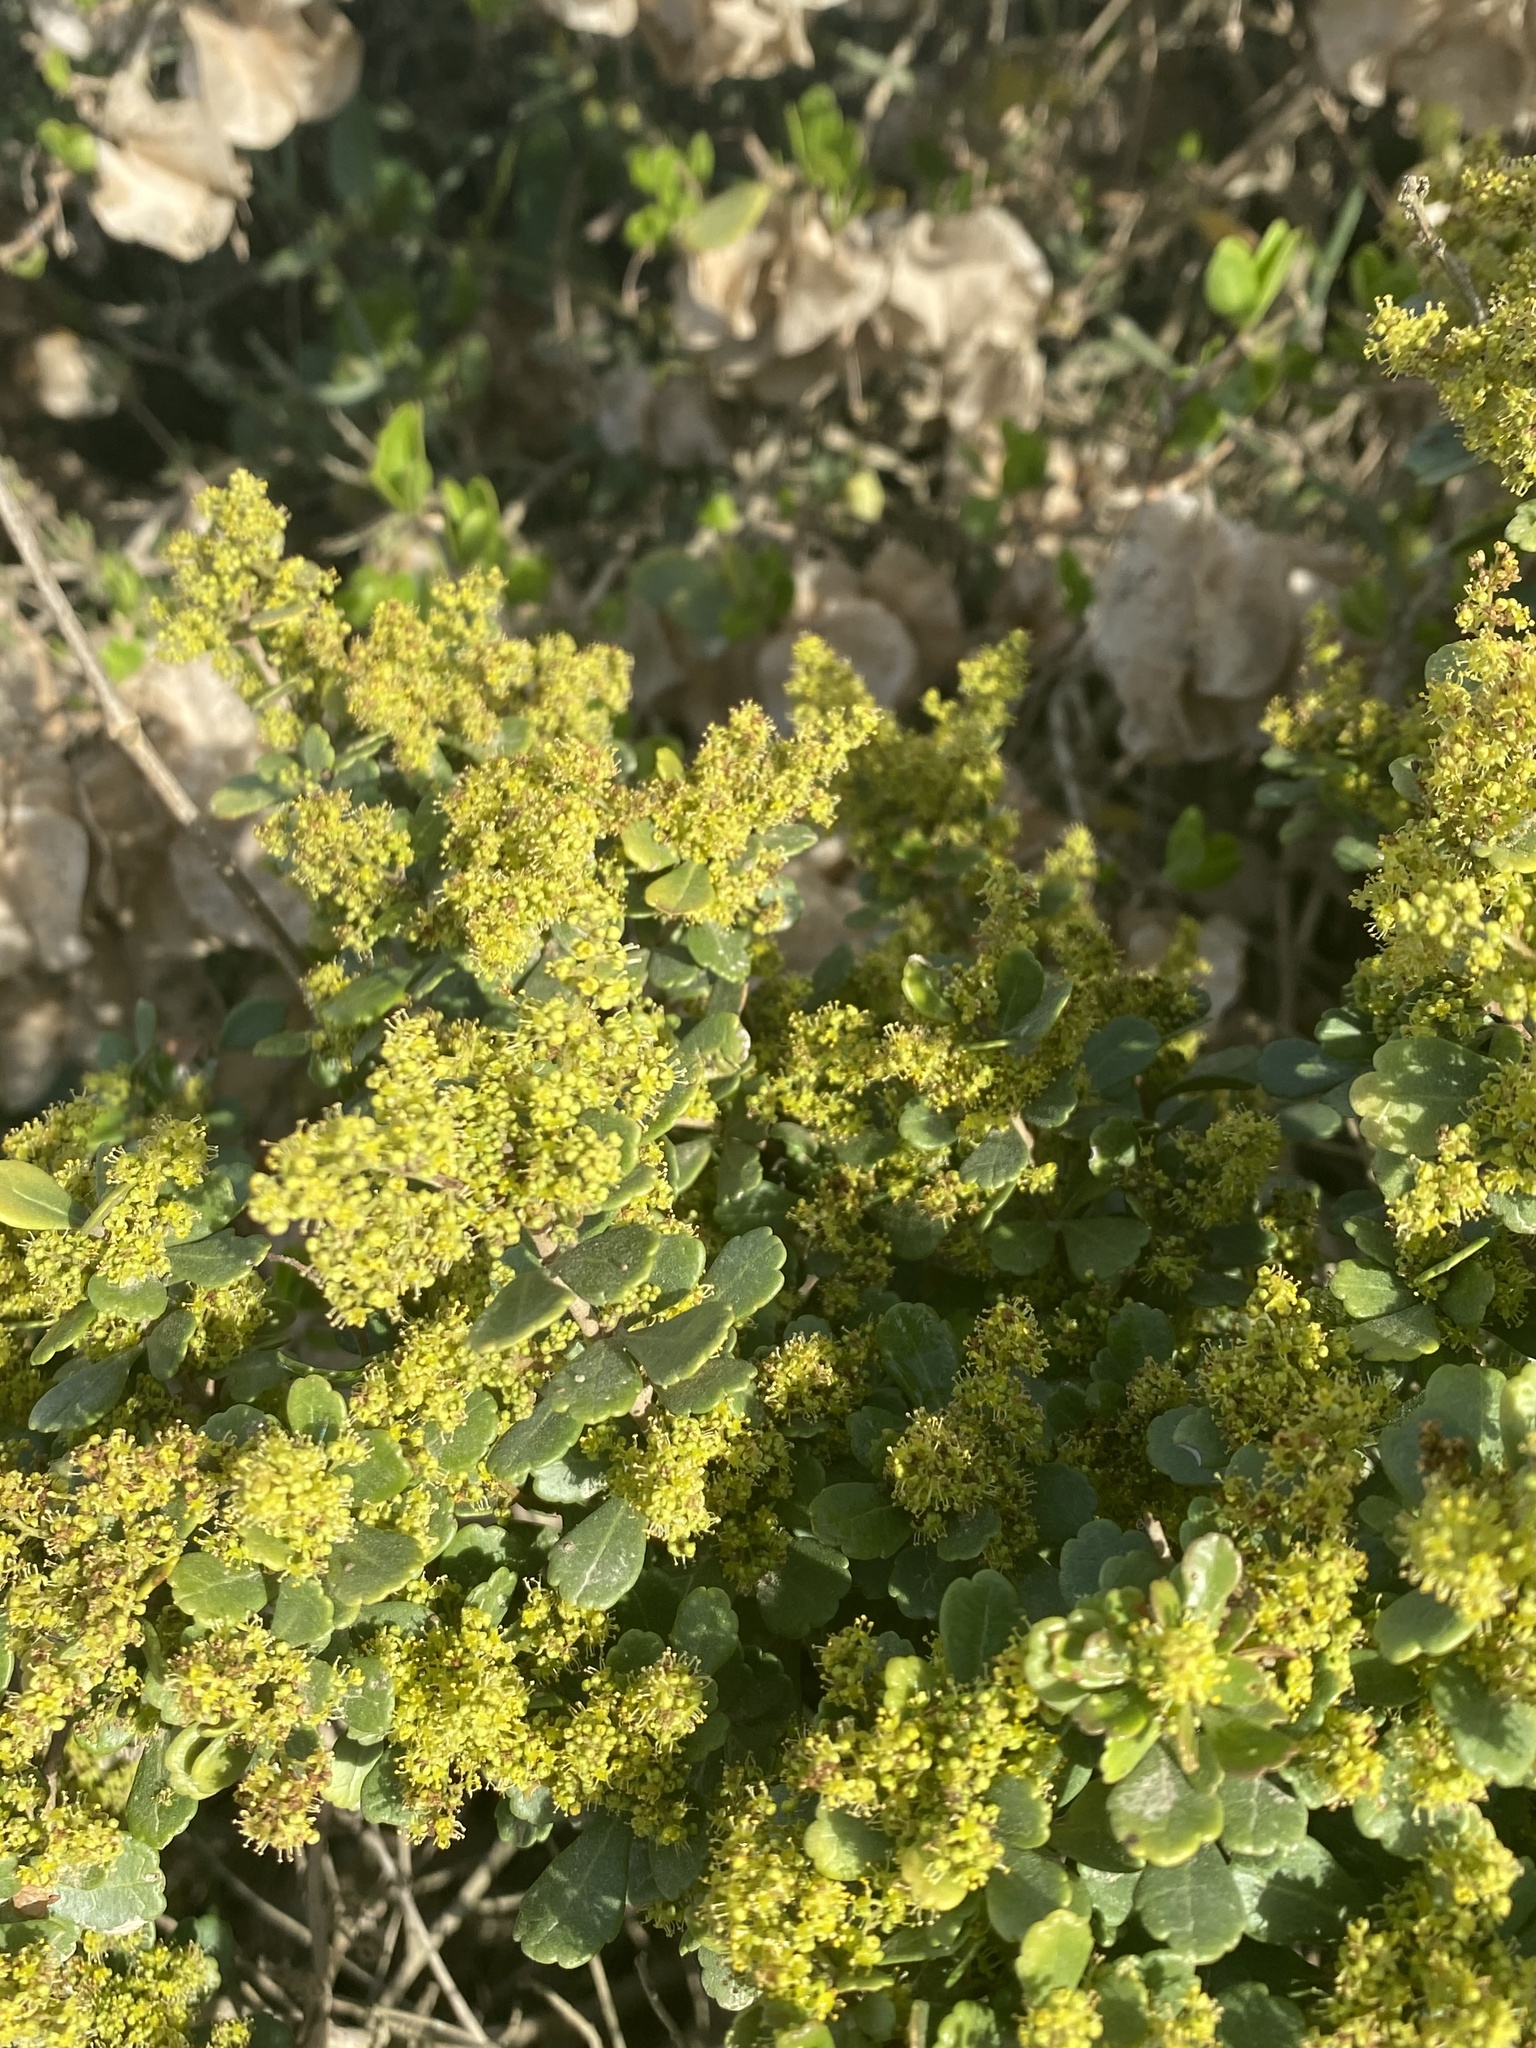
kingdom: Plantae
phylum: Tracheophyta
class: Magnoliopsida
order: Sapindales
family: Anacardiaceae
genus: Searsia
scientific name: Searsia crenata
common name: Crowberry
